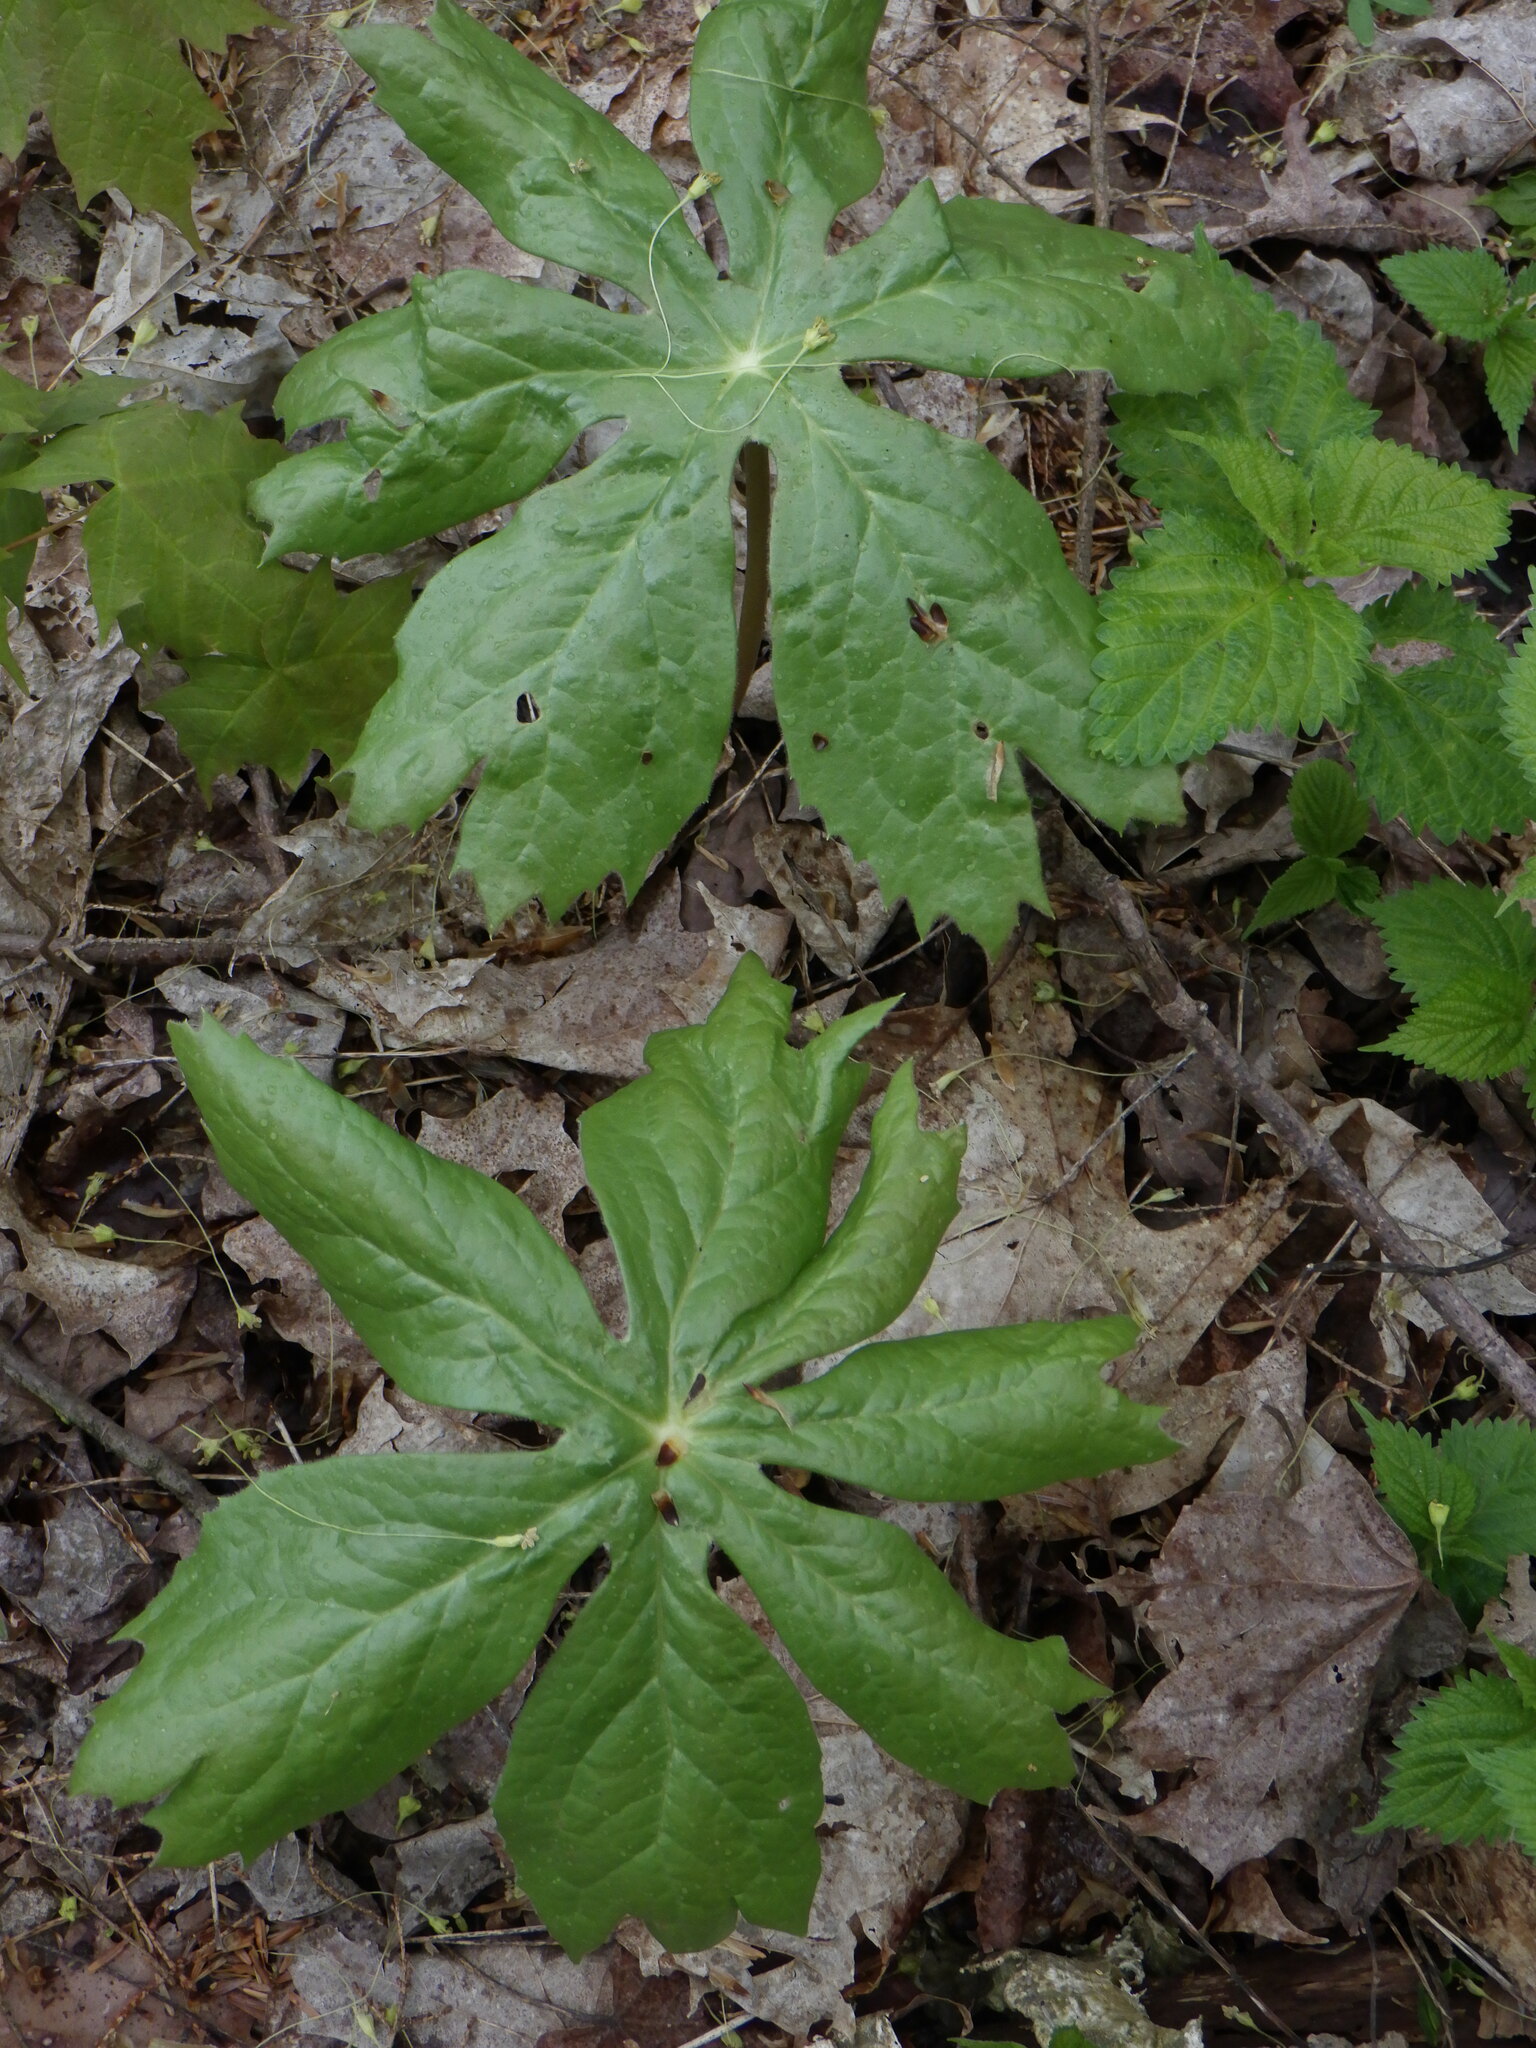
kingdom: Plantae
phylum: Tracheophyta
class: Magnoliopsida
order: Ranunculales
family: Berberidaceae
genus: Podophyllum
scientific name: Podophyllum peltatum
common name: Wild mandrake
